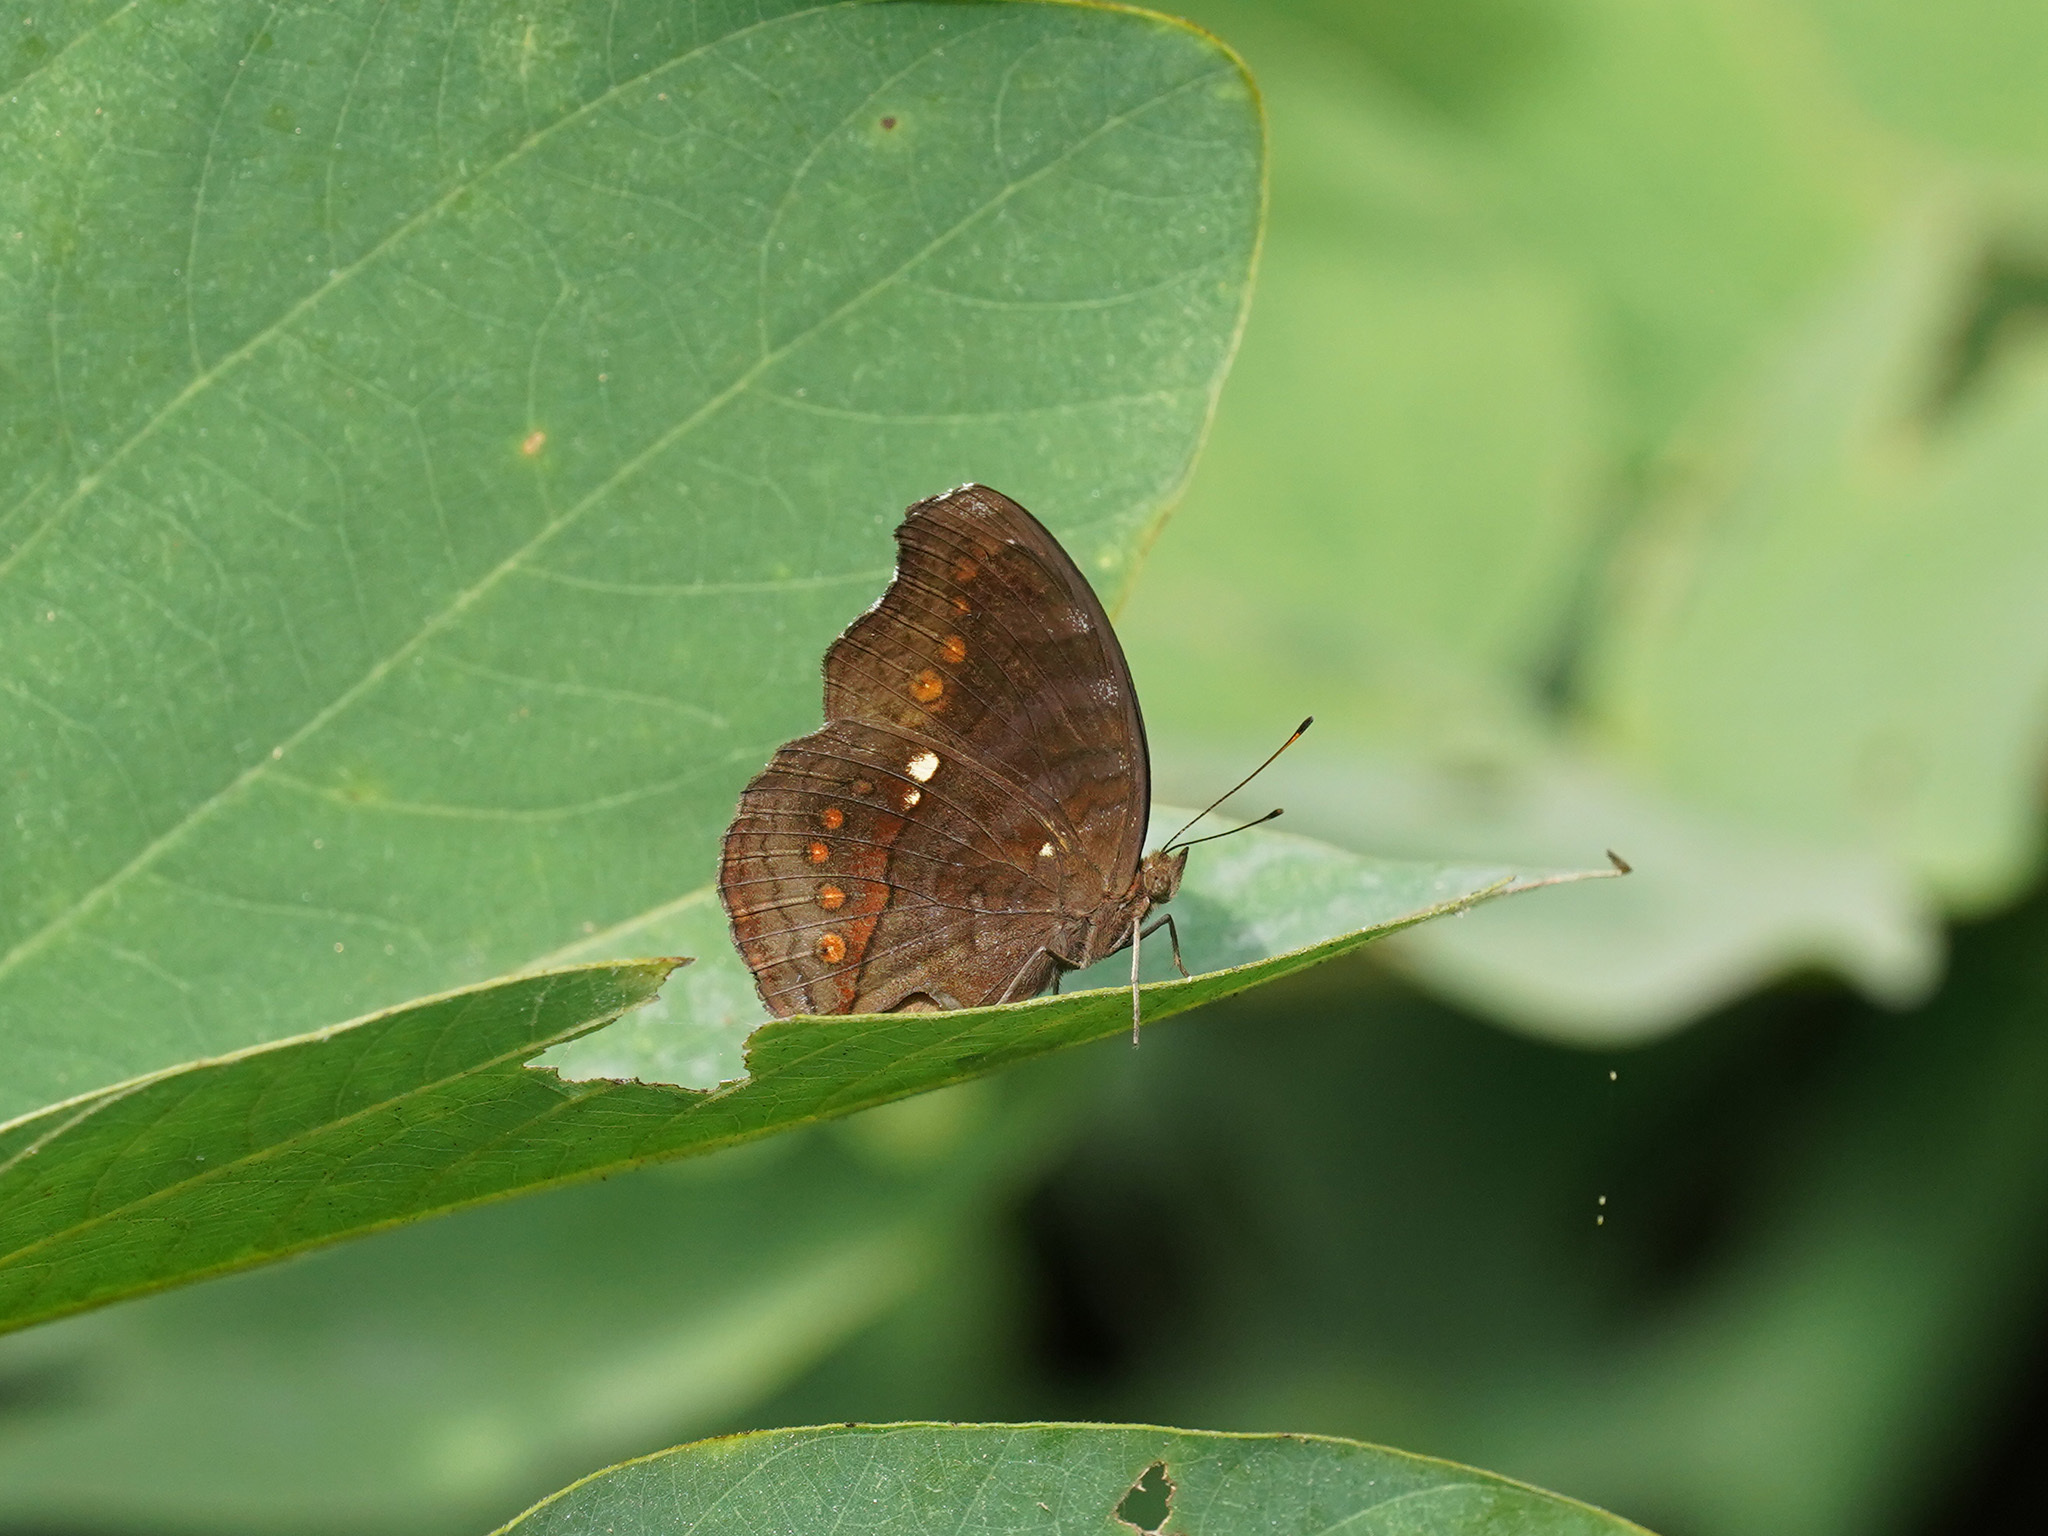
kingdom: Animalia
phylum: Arthropoda
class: Insecta
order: Lepidoptera
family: Nymphalidae
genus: Junonia
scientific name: Junonia hedonia
